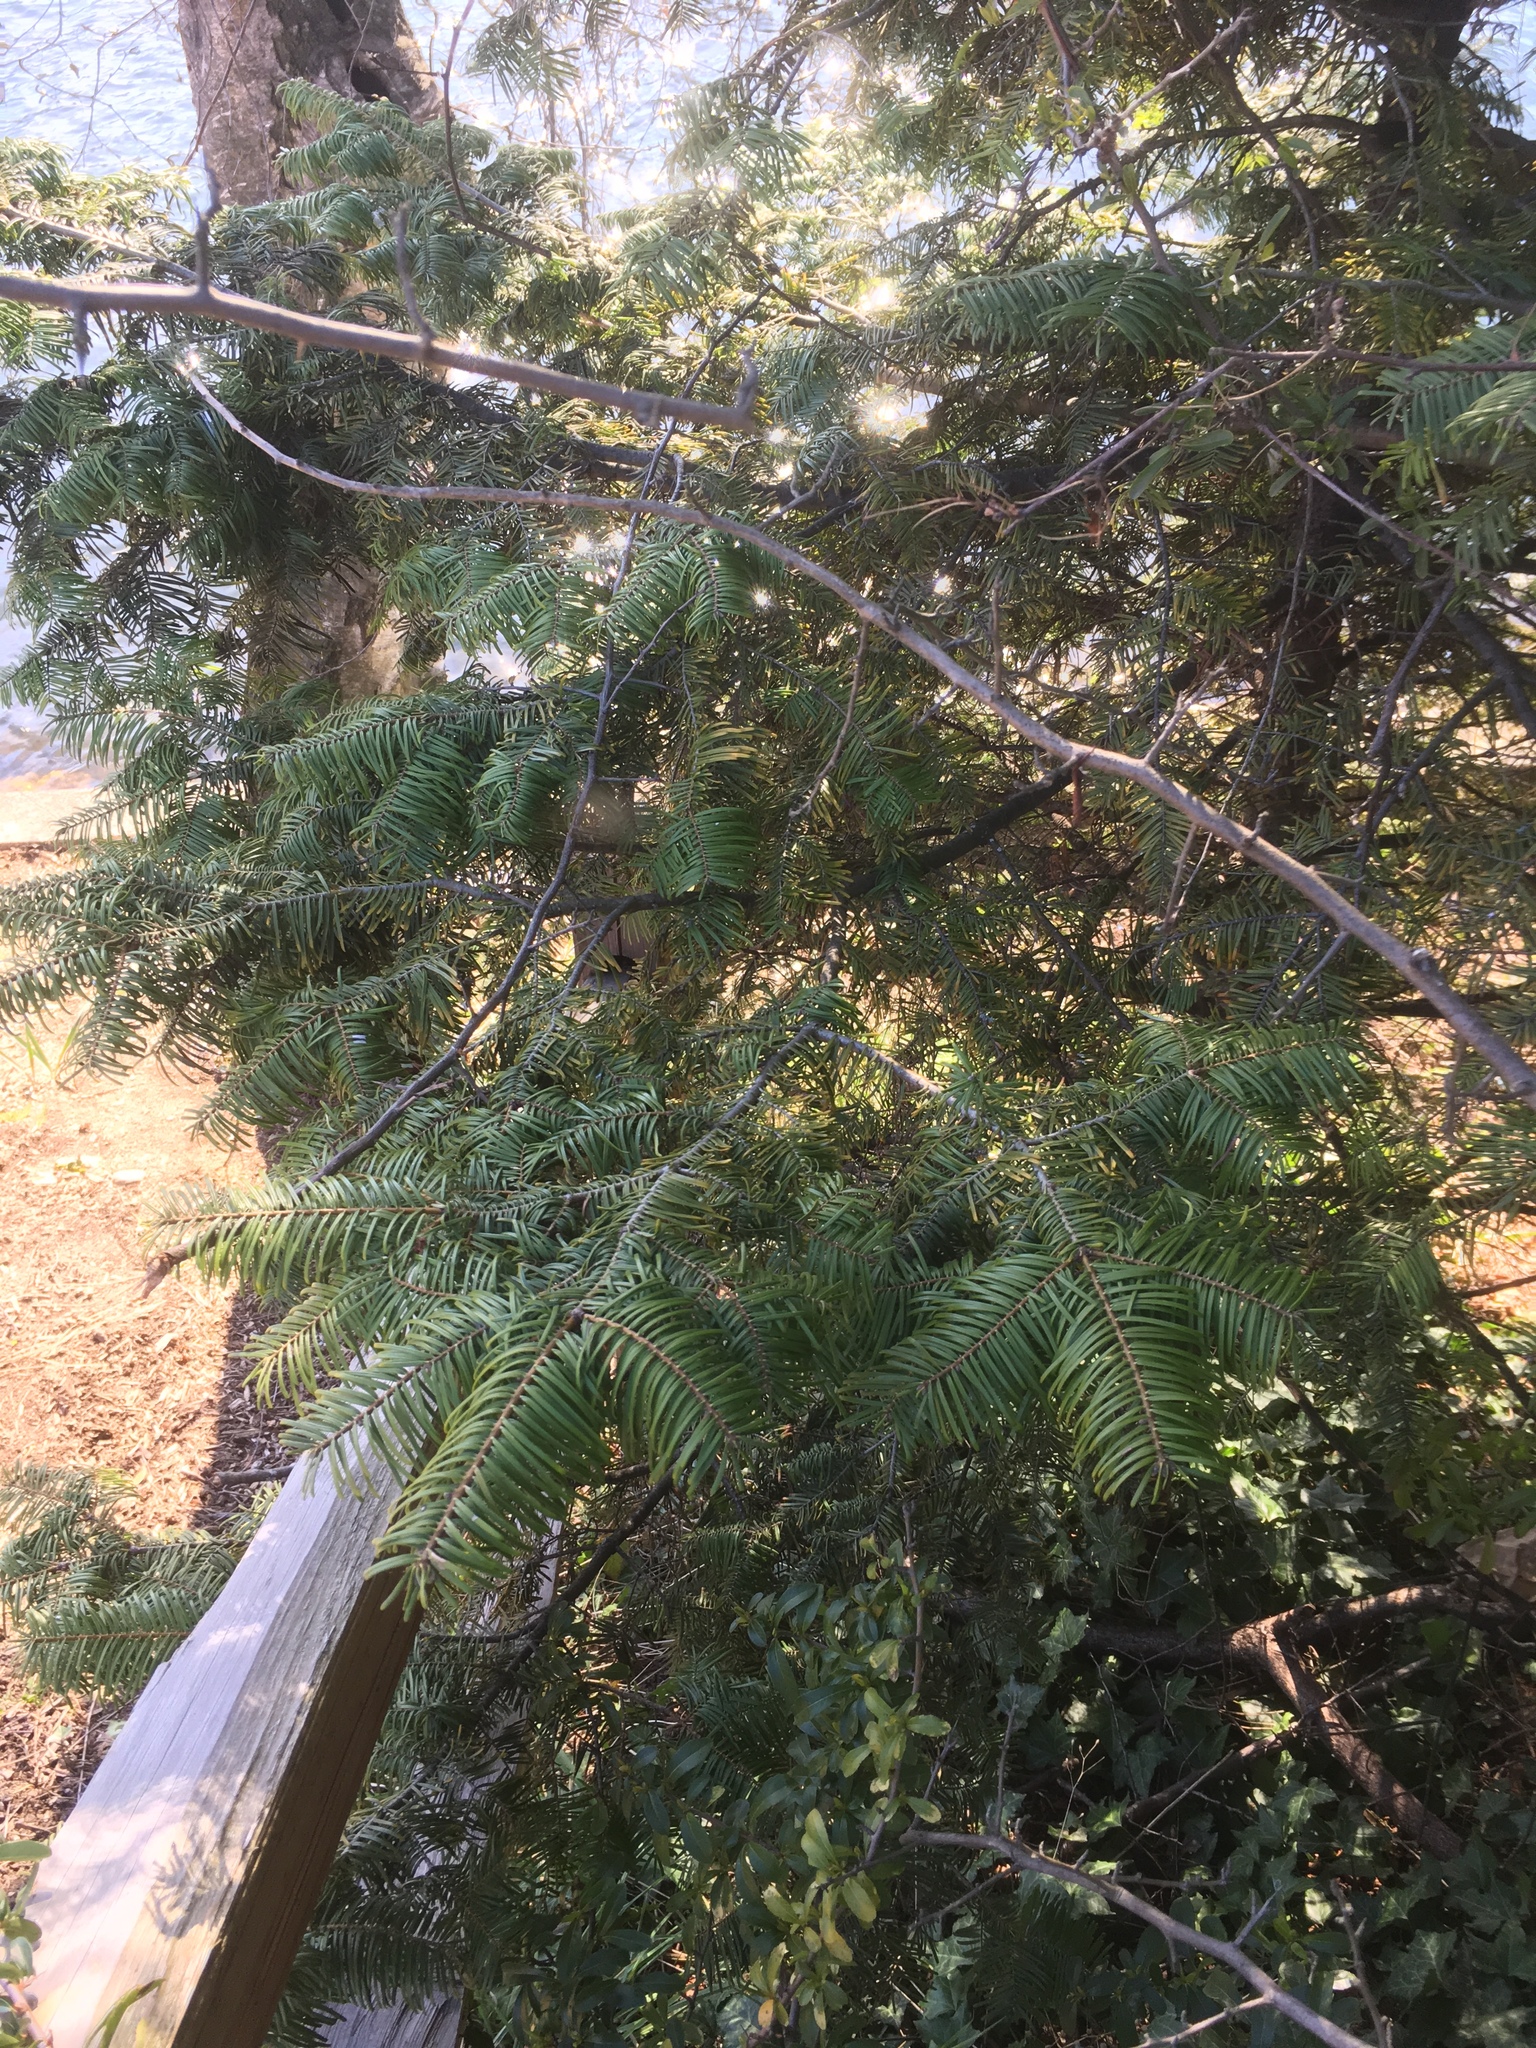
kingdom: Plantae
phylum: Tracheophyta
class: Pinopsida
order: Pinales
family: Pinaceae
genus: Abies
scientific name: Abies grandis
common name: Giant fir
